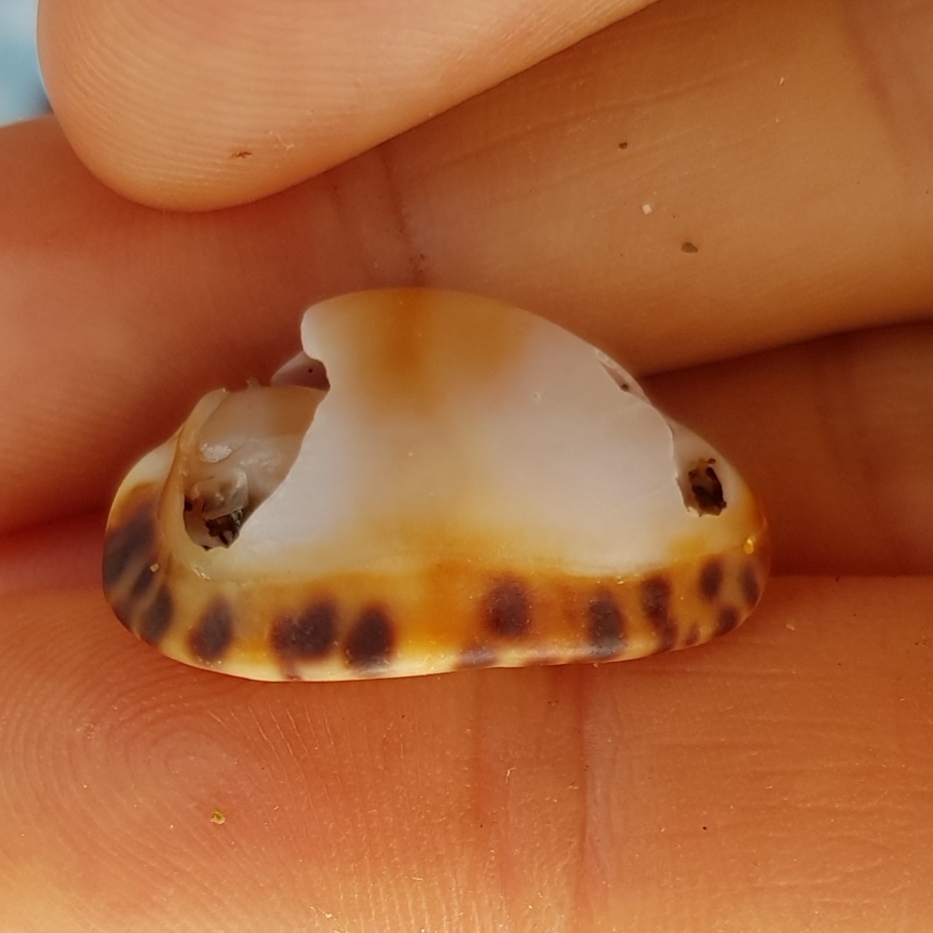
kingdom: Animalia
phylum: Mollusca
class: Gastropoda
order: Littorinimorpha
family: Cypraeidae
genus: Pseudozonaria
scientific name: Pseudozonaria arabicula
